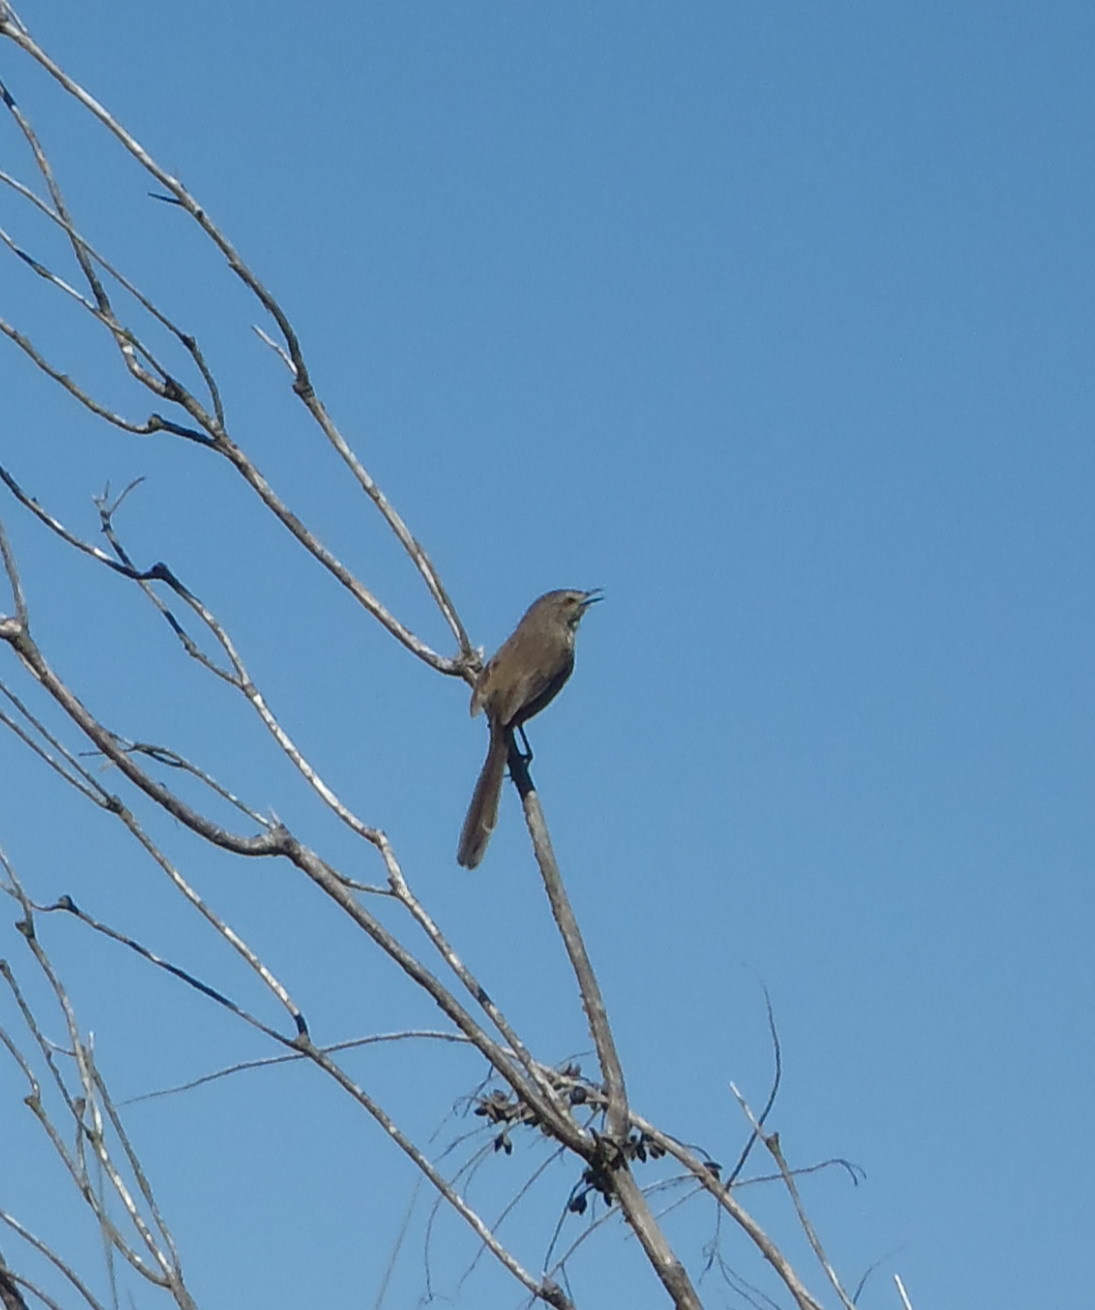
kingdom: Animalia
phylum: Chordata
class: Aves
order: Passeriformes
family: Cisticolidae
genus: Prinia
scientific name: Prinia maculosa
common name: Karoo prinia
